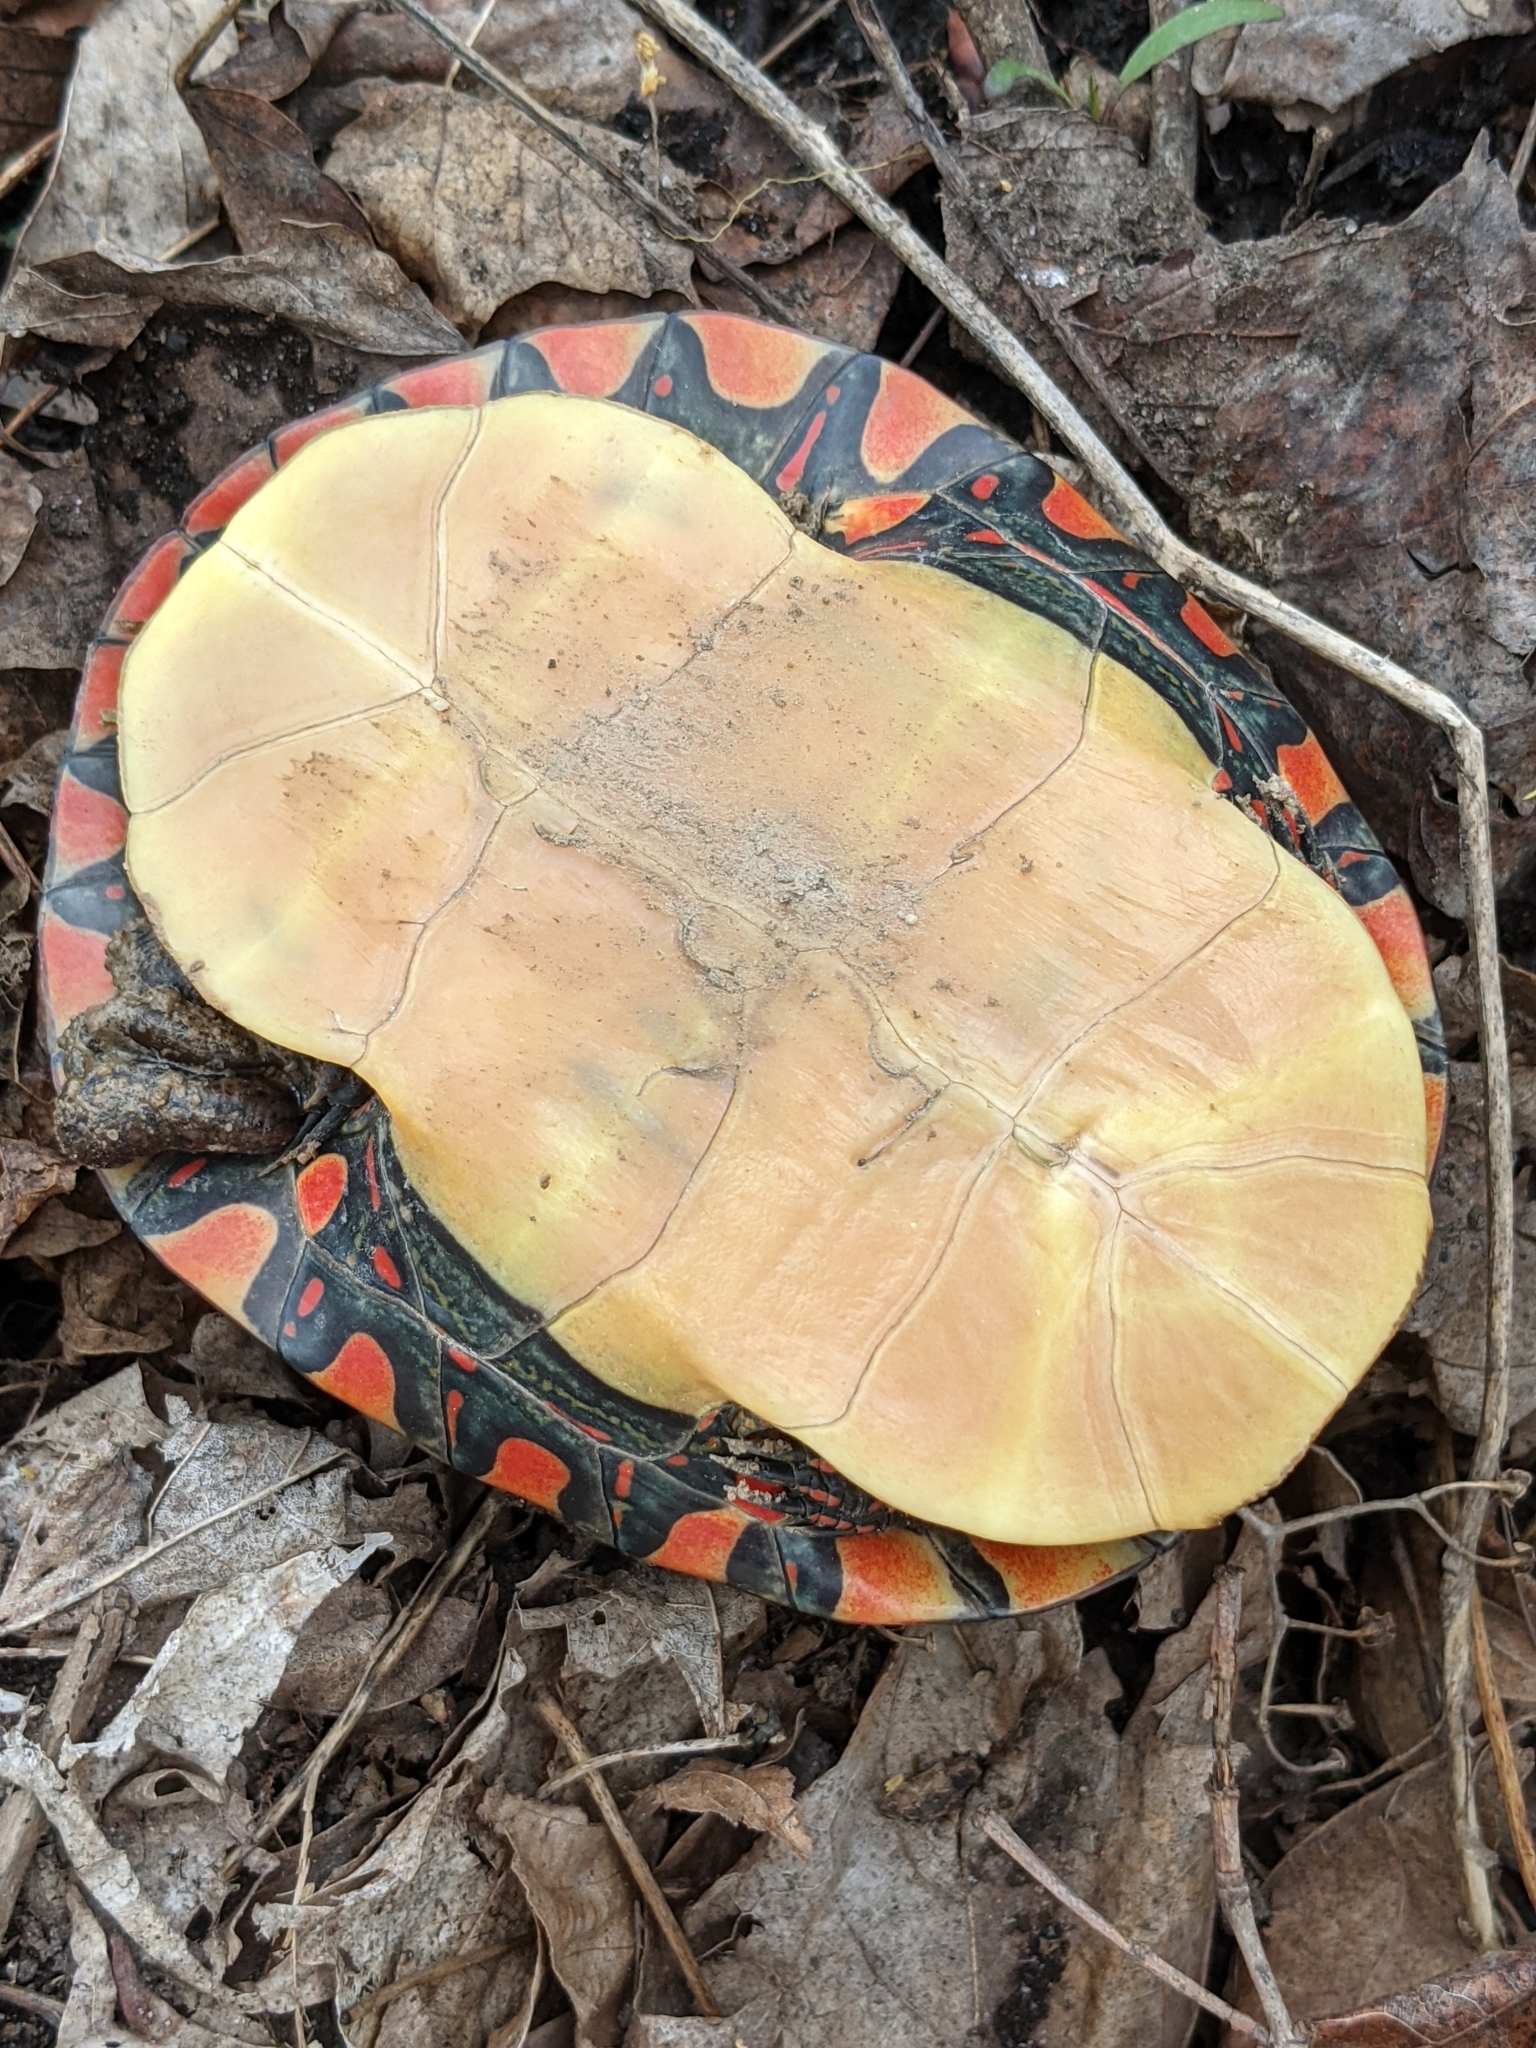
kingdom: Animalia
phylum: Chordata
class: Testudines
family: Emydidae
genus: Chrysemys
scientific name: Chrysemys picta
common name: Painted turtle
